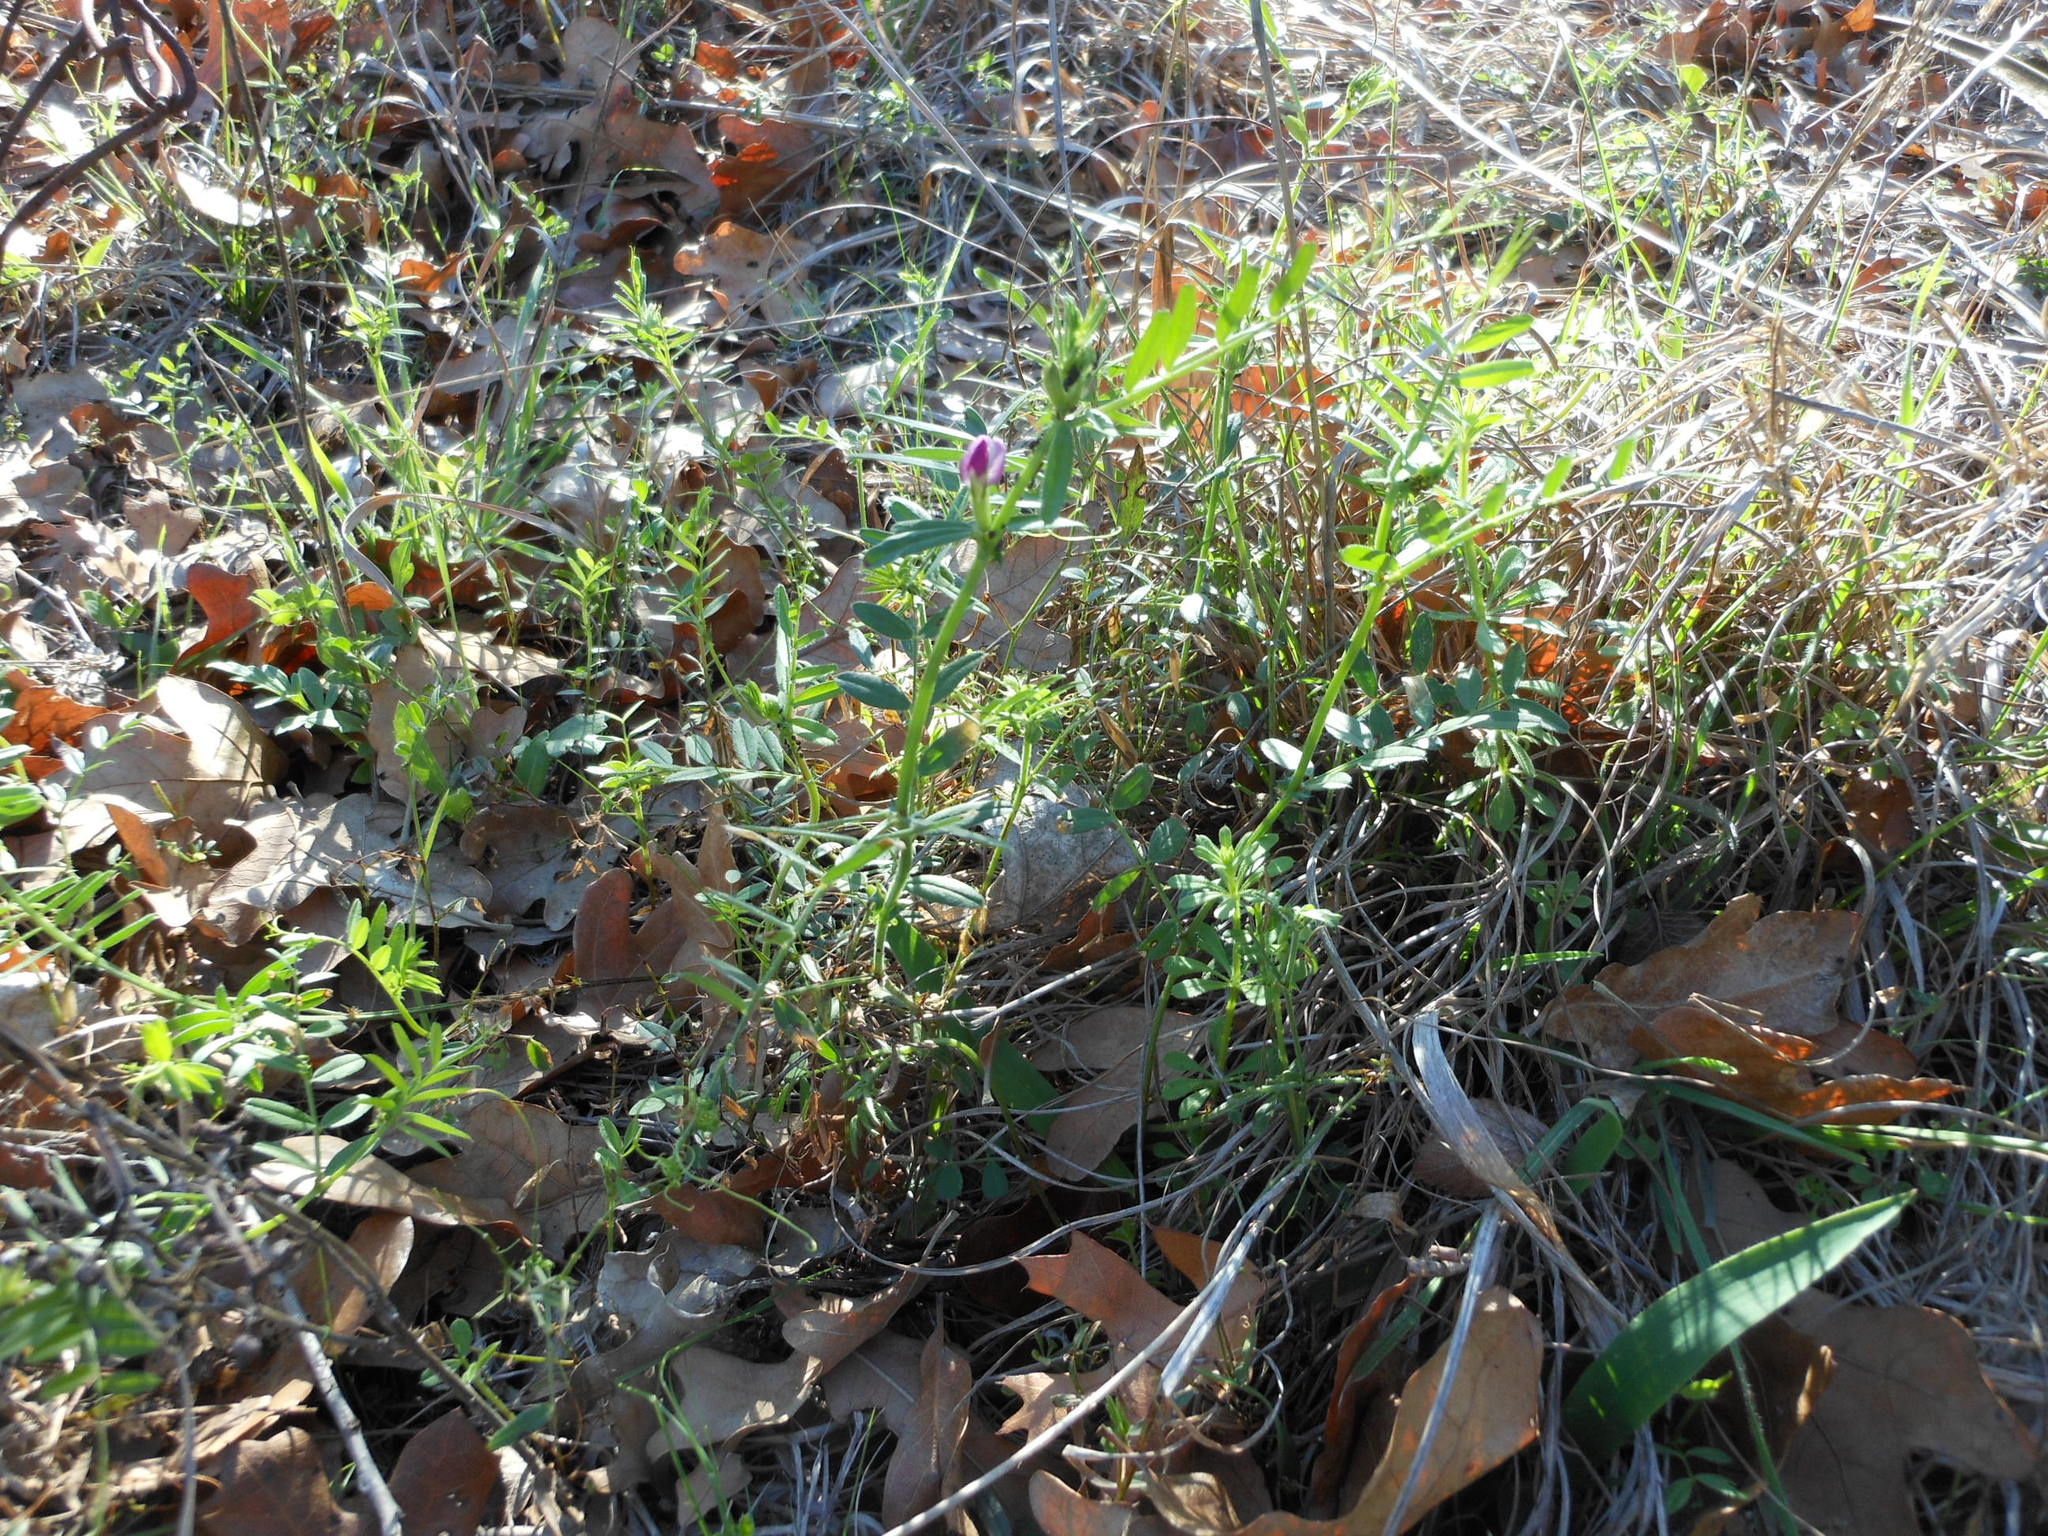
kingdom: Plantae
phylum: Tracheophyta
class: Magnoliopsida
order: Fabales
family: Fabaceae
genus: Vicia
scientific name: Vicia sativa
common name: Garden vetch
